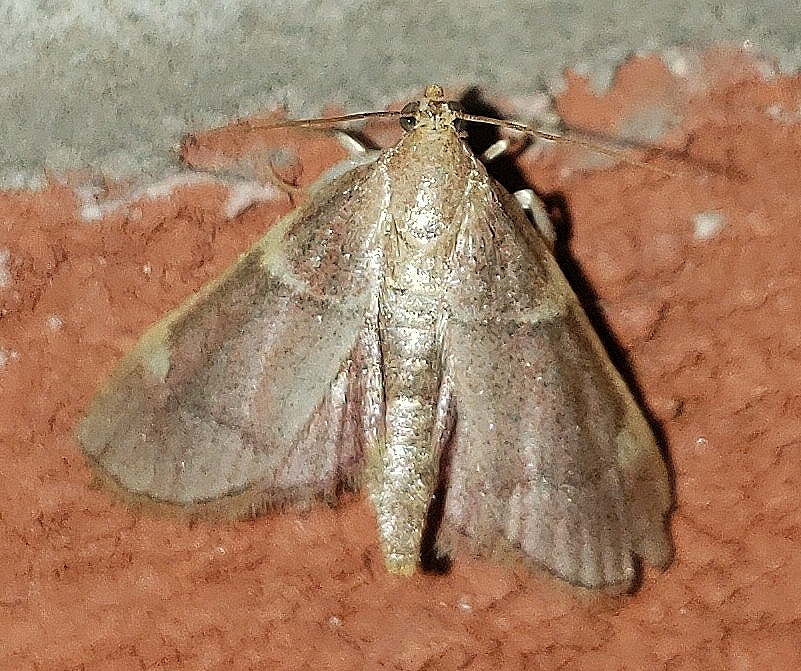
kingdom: Animalia
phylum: Arthropoda
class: Insecta
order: Lepidoptera
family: Pyralidae
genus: Hypsopygia
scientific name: Hypsopygia binodulalis
